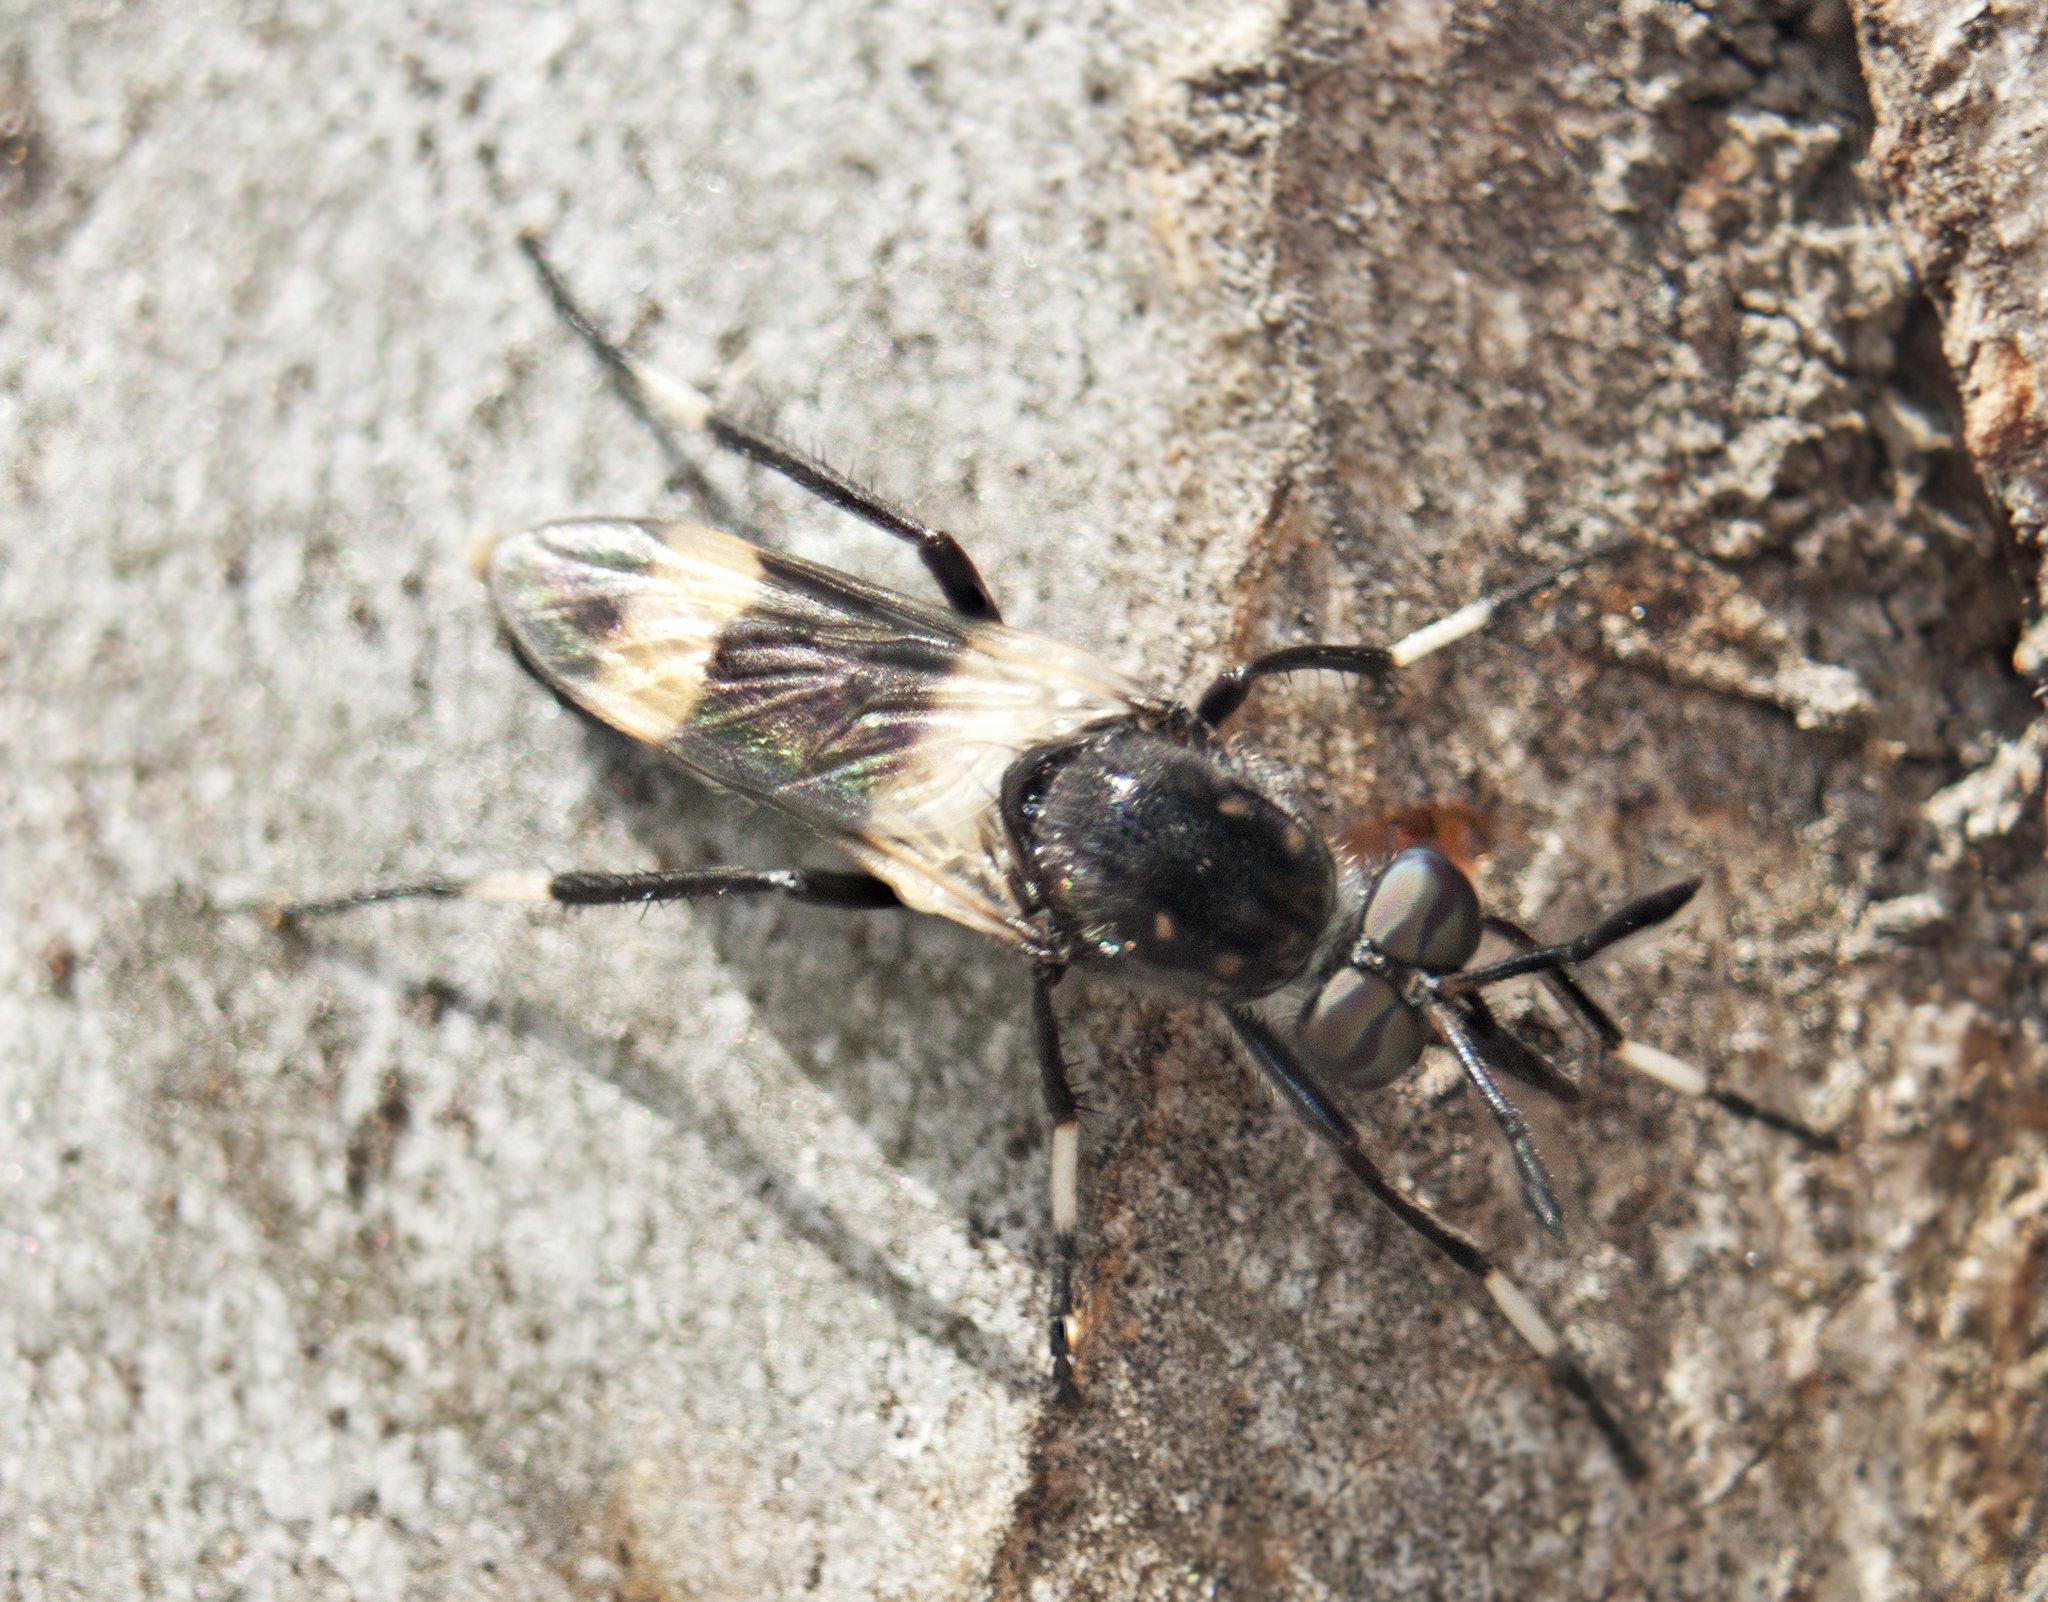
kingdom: Animalia
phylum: Arthropoda
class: Insecta
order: Diptera
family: Therevidae
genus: Agapophytus
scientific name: Agapophytus albobasalis
